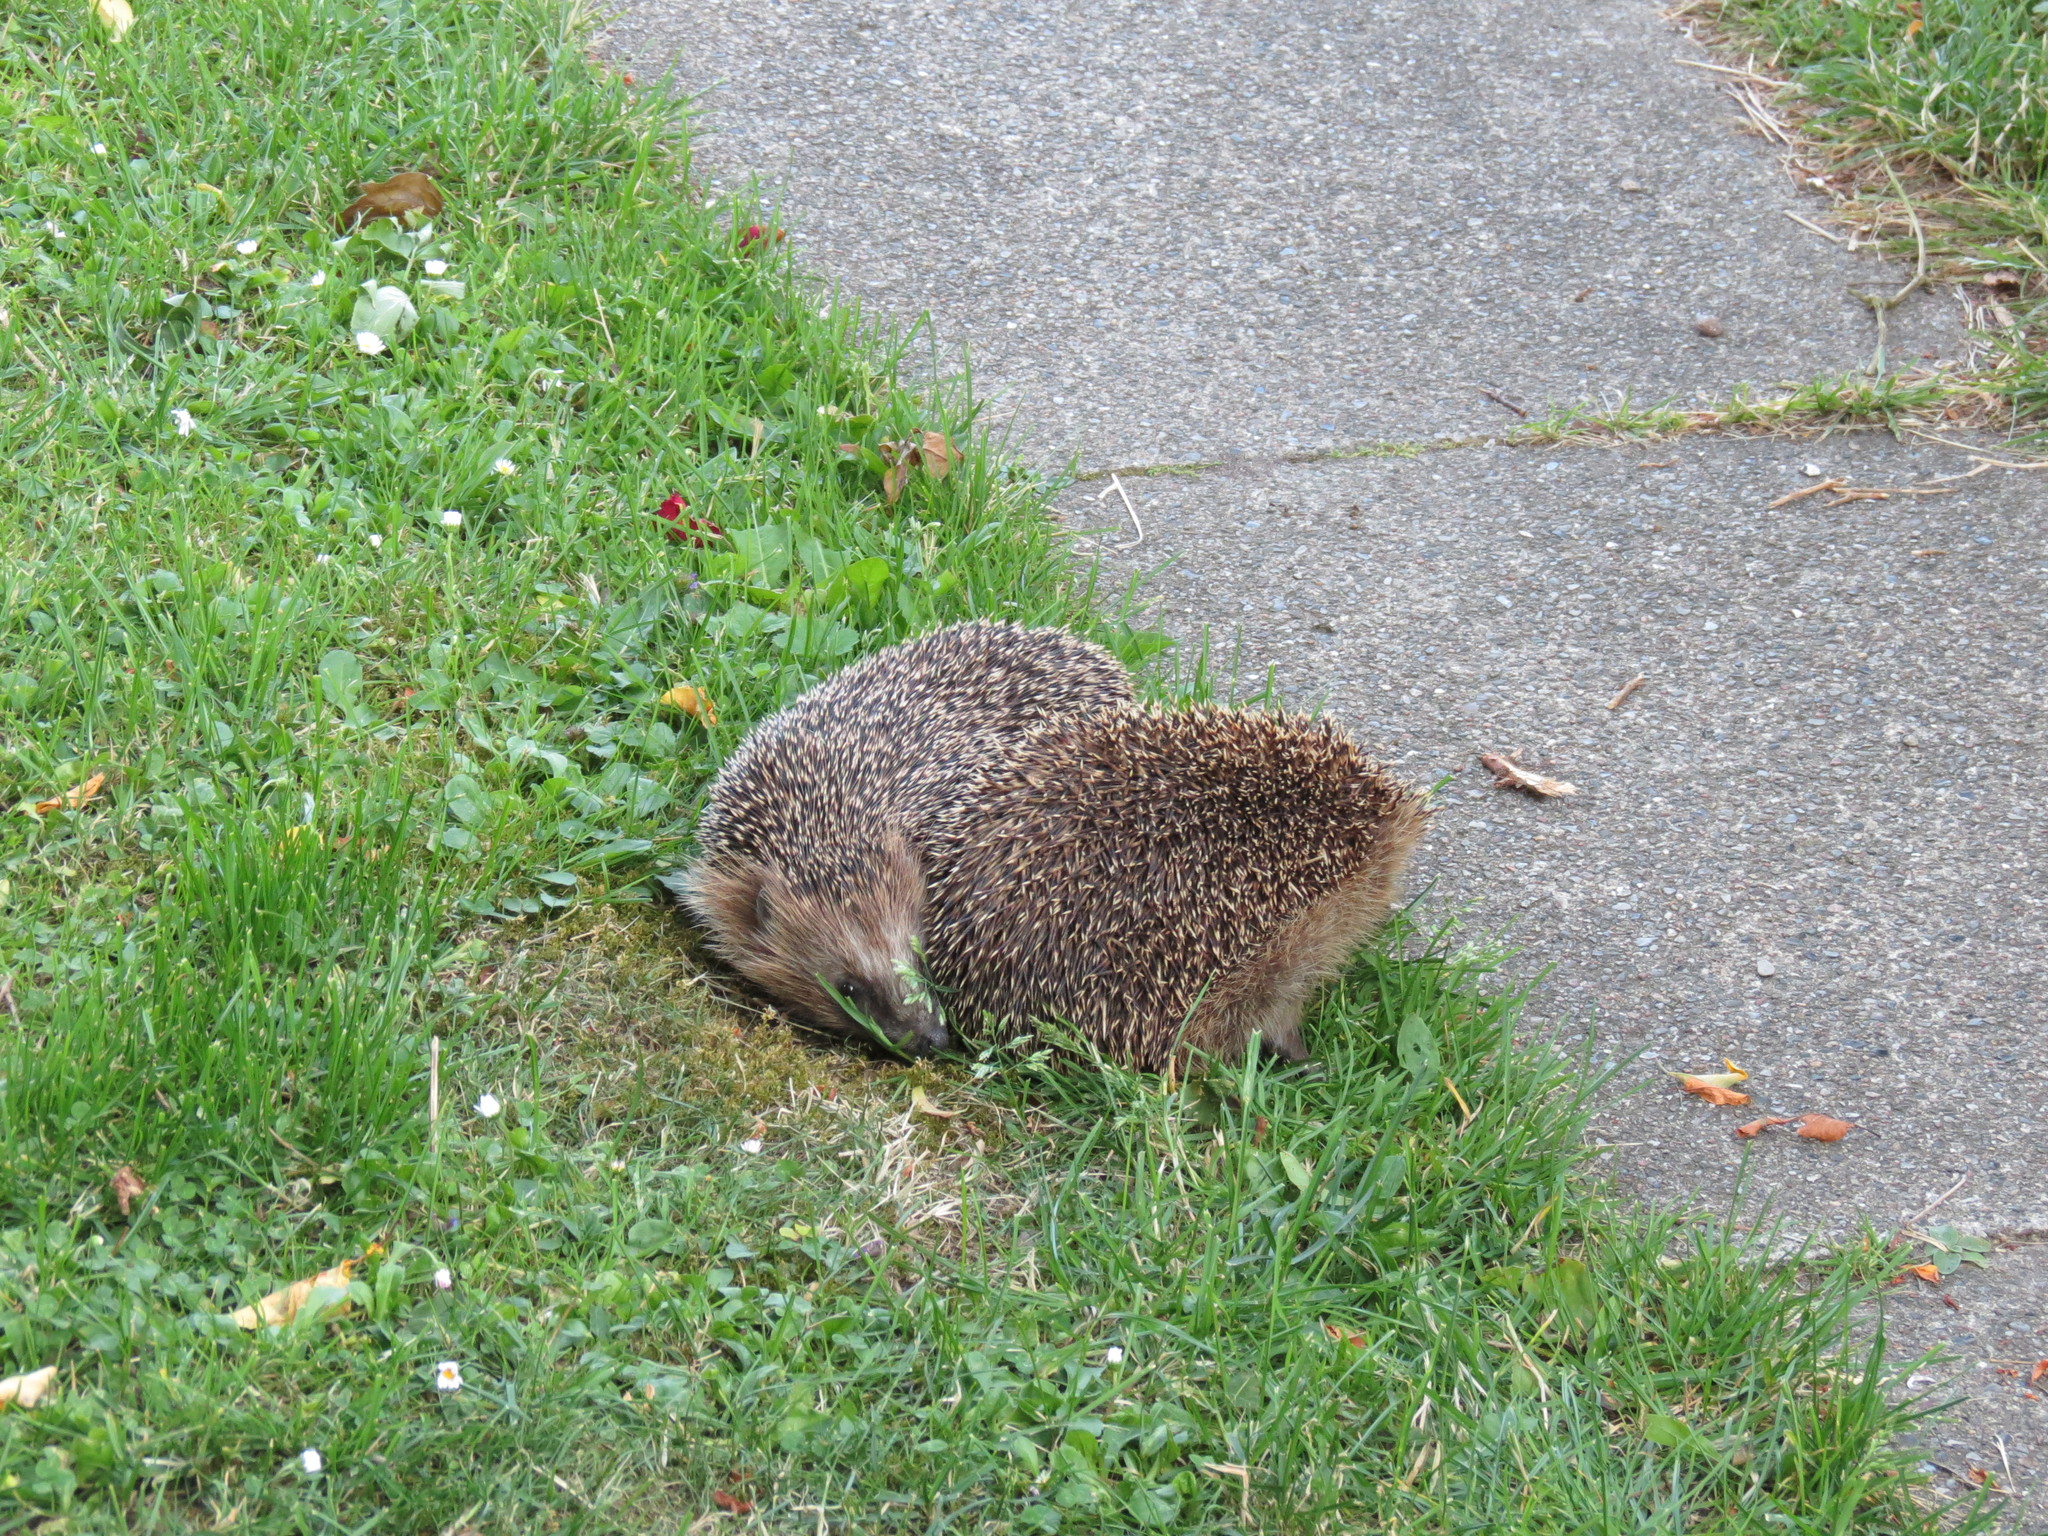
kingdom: Animalia
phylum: Chordata
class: Mammalia
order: Erinaceomorpha
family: Erinaceidae
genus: Erinaceus
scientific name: Erinaceus europaeus
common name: West european hedgehog
